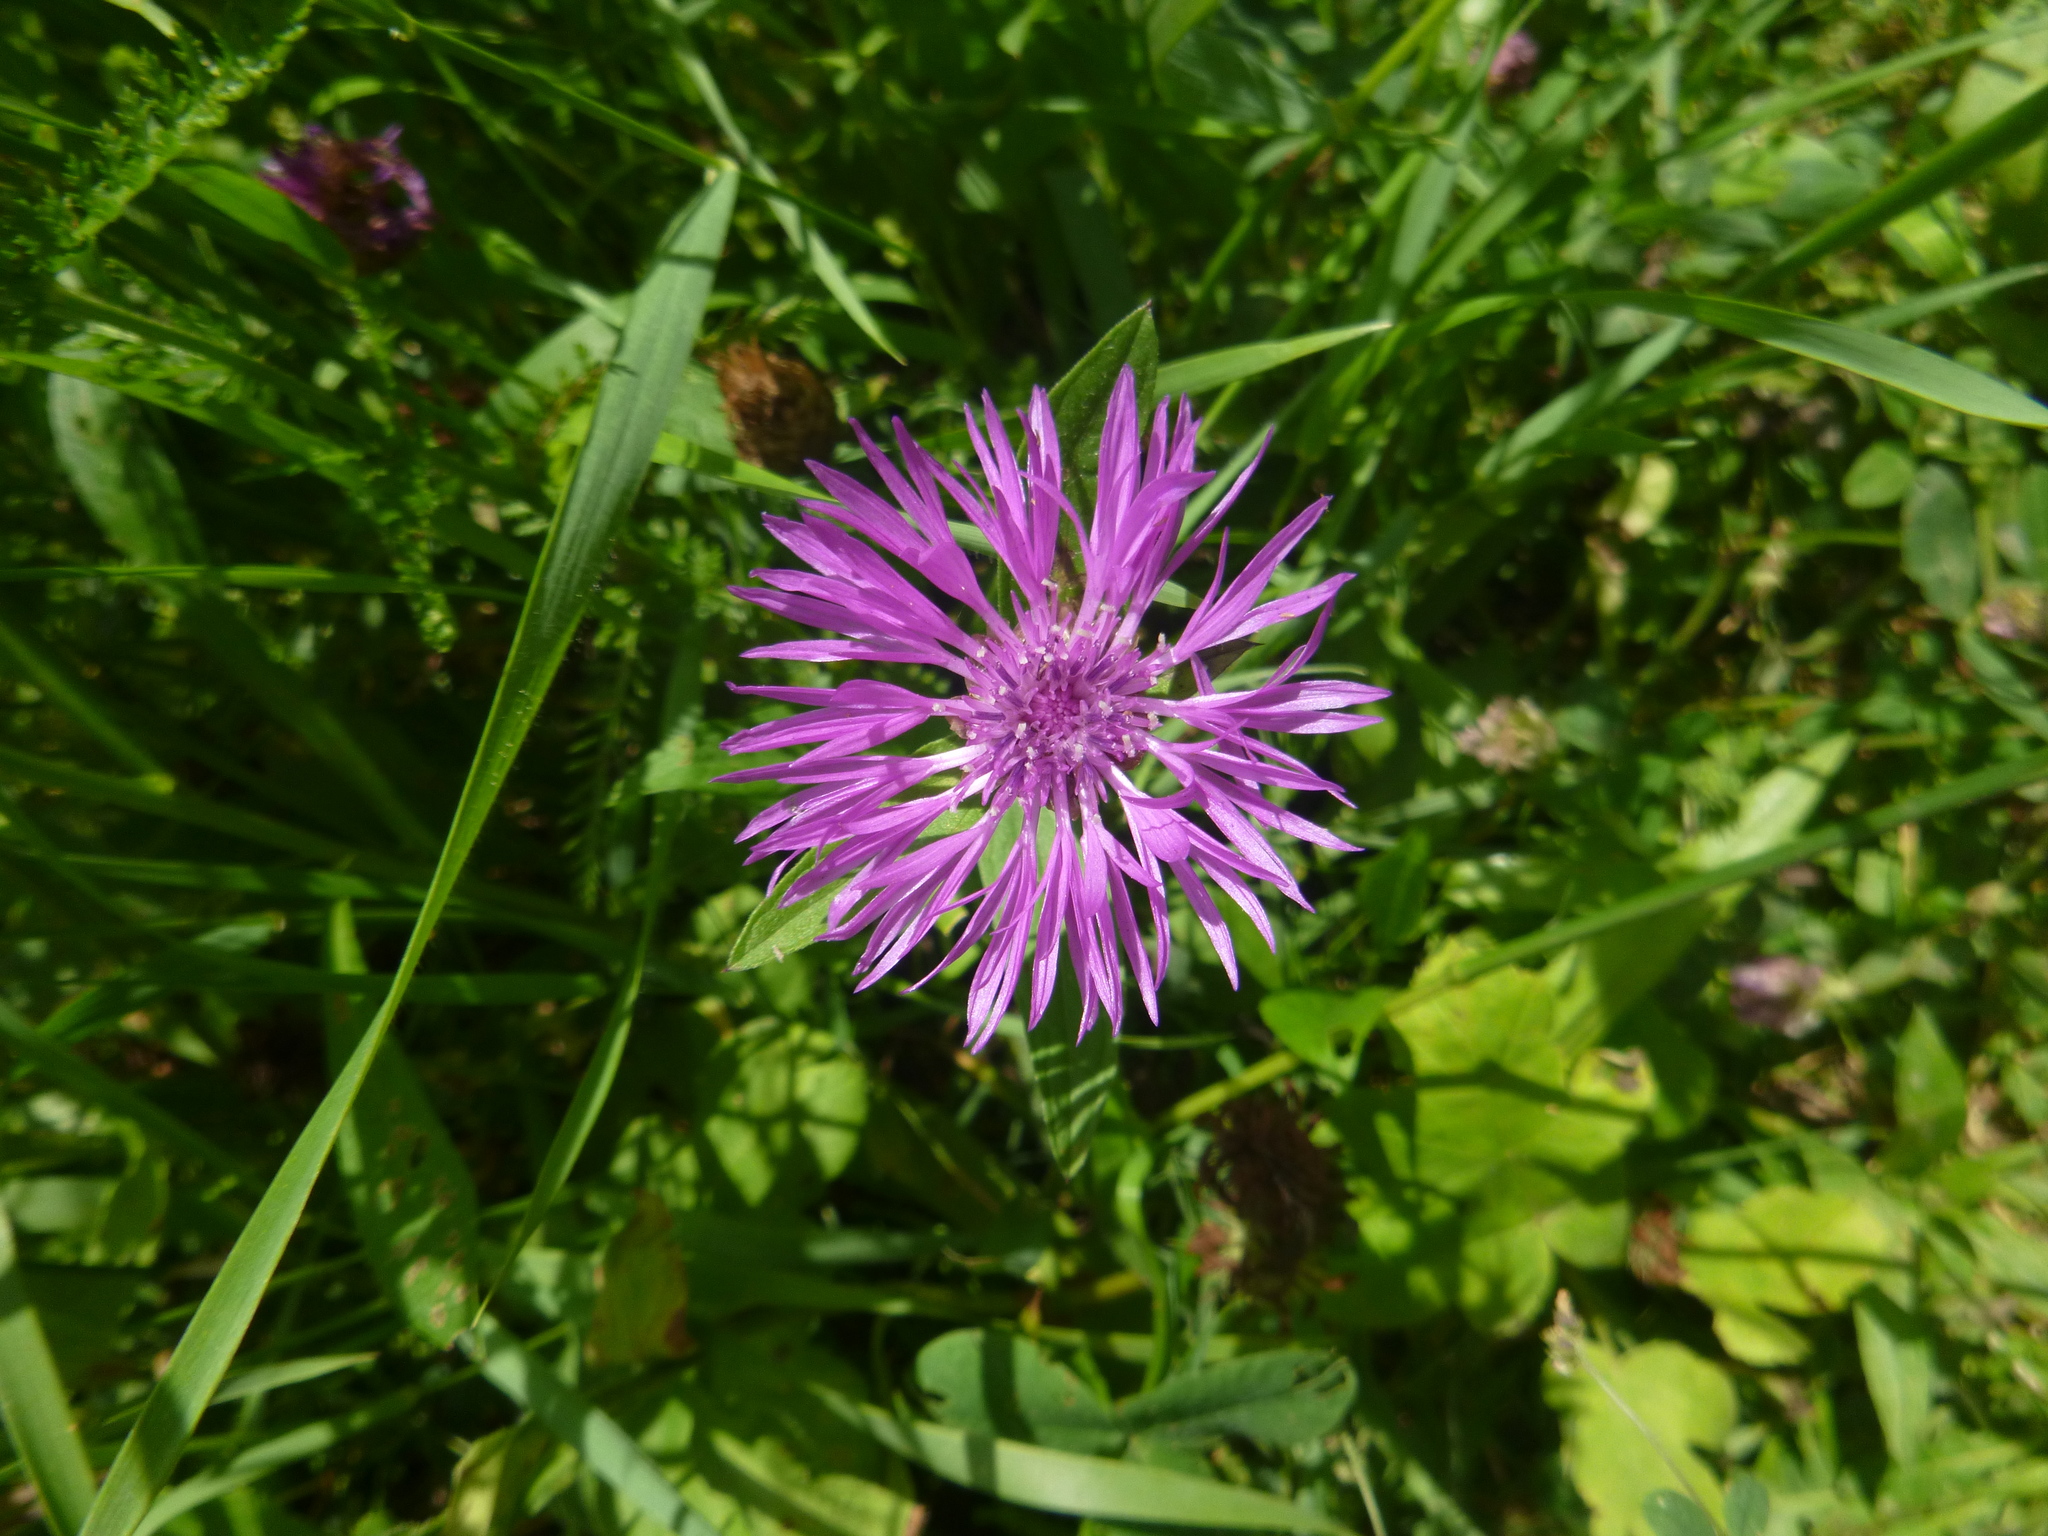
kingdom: Plantae
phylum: Tracheophyta
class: Magnoliopsida
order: Asterales
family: Asteraceae
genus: Centaurea
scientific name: Centaurea jacea
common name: Brown knapweed
